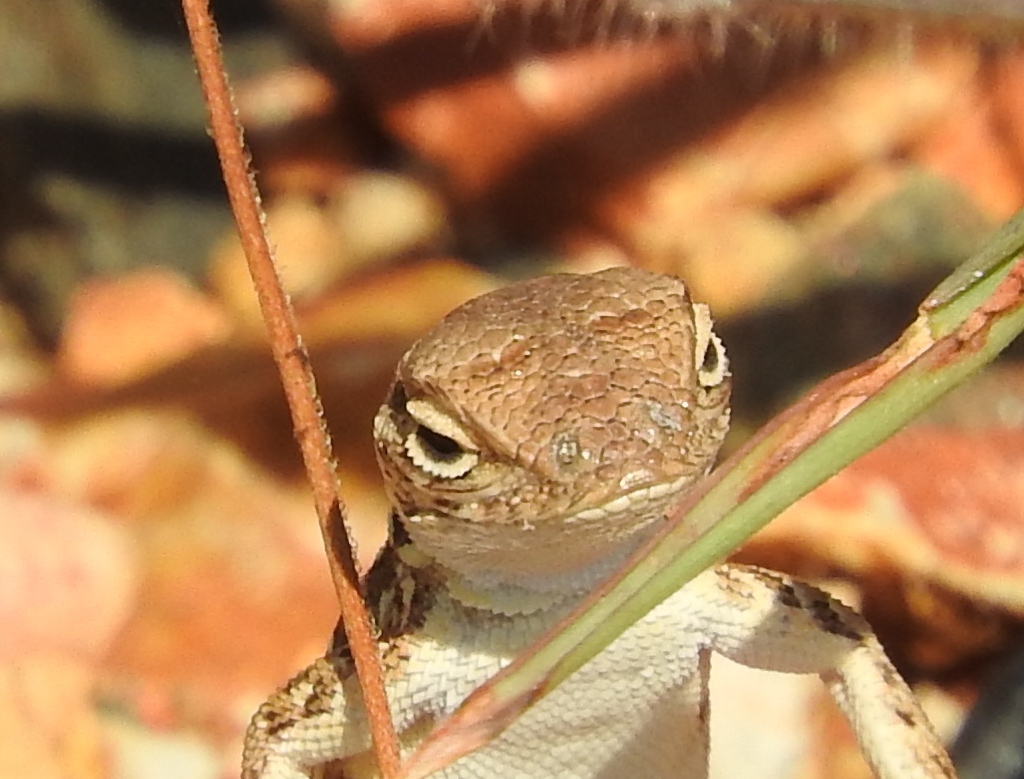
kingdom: Animalia
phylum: Chordata
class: Squamata
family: Phrynosomatidae
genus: Holbrookia
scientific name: Holbrookia elegans
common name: Elegant earless lizard
